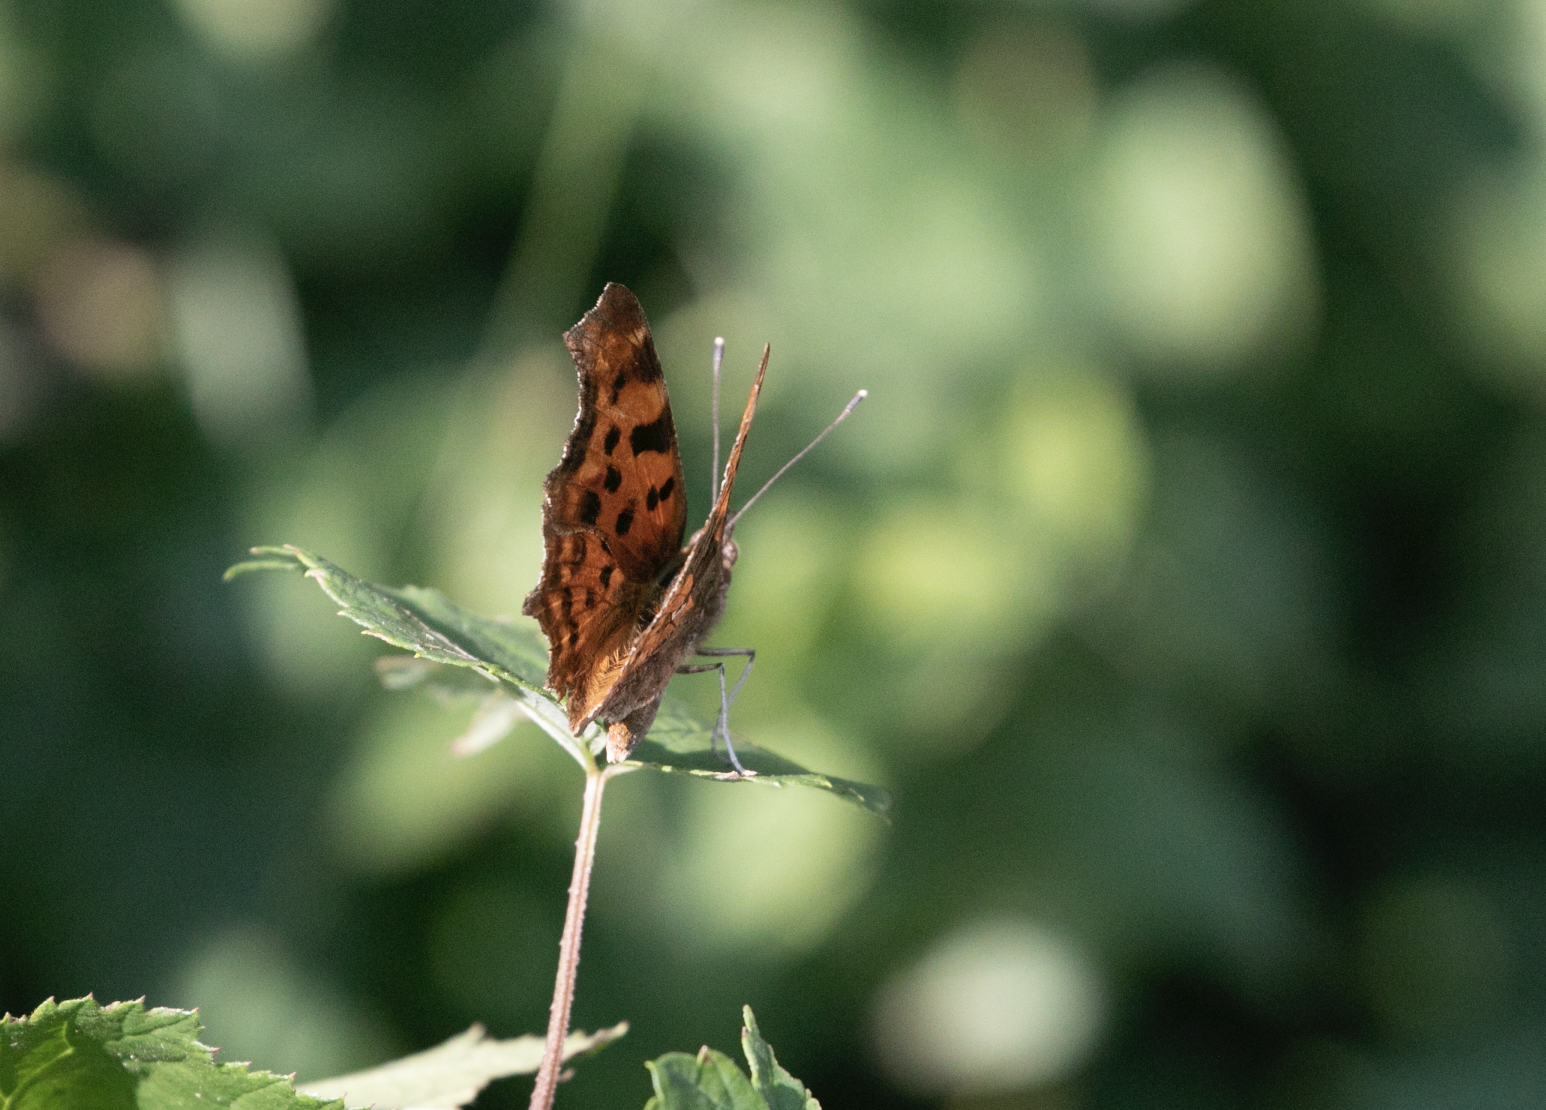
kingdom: Animalia
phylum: Arthropoda
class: Insecta
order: Lepidoptera
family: Nymphalidae
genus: Polygonia
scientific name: Polygonia c-album
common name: Comma
